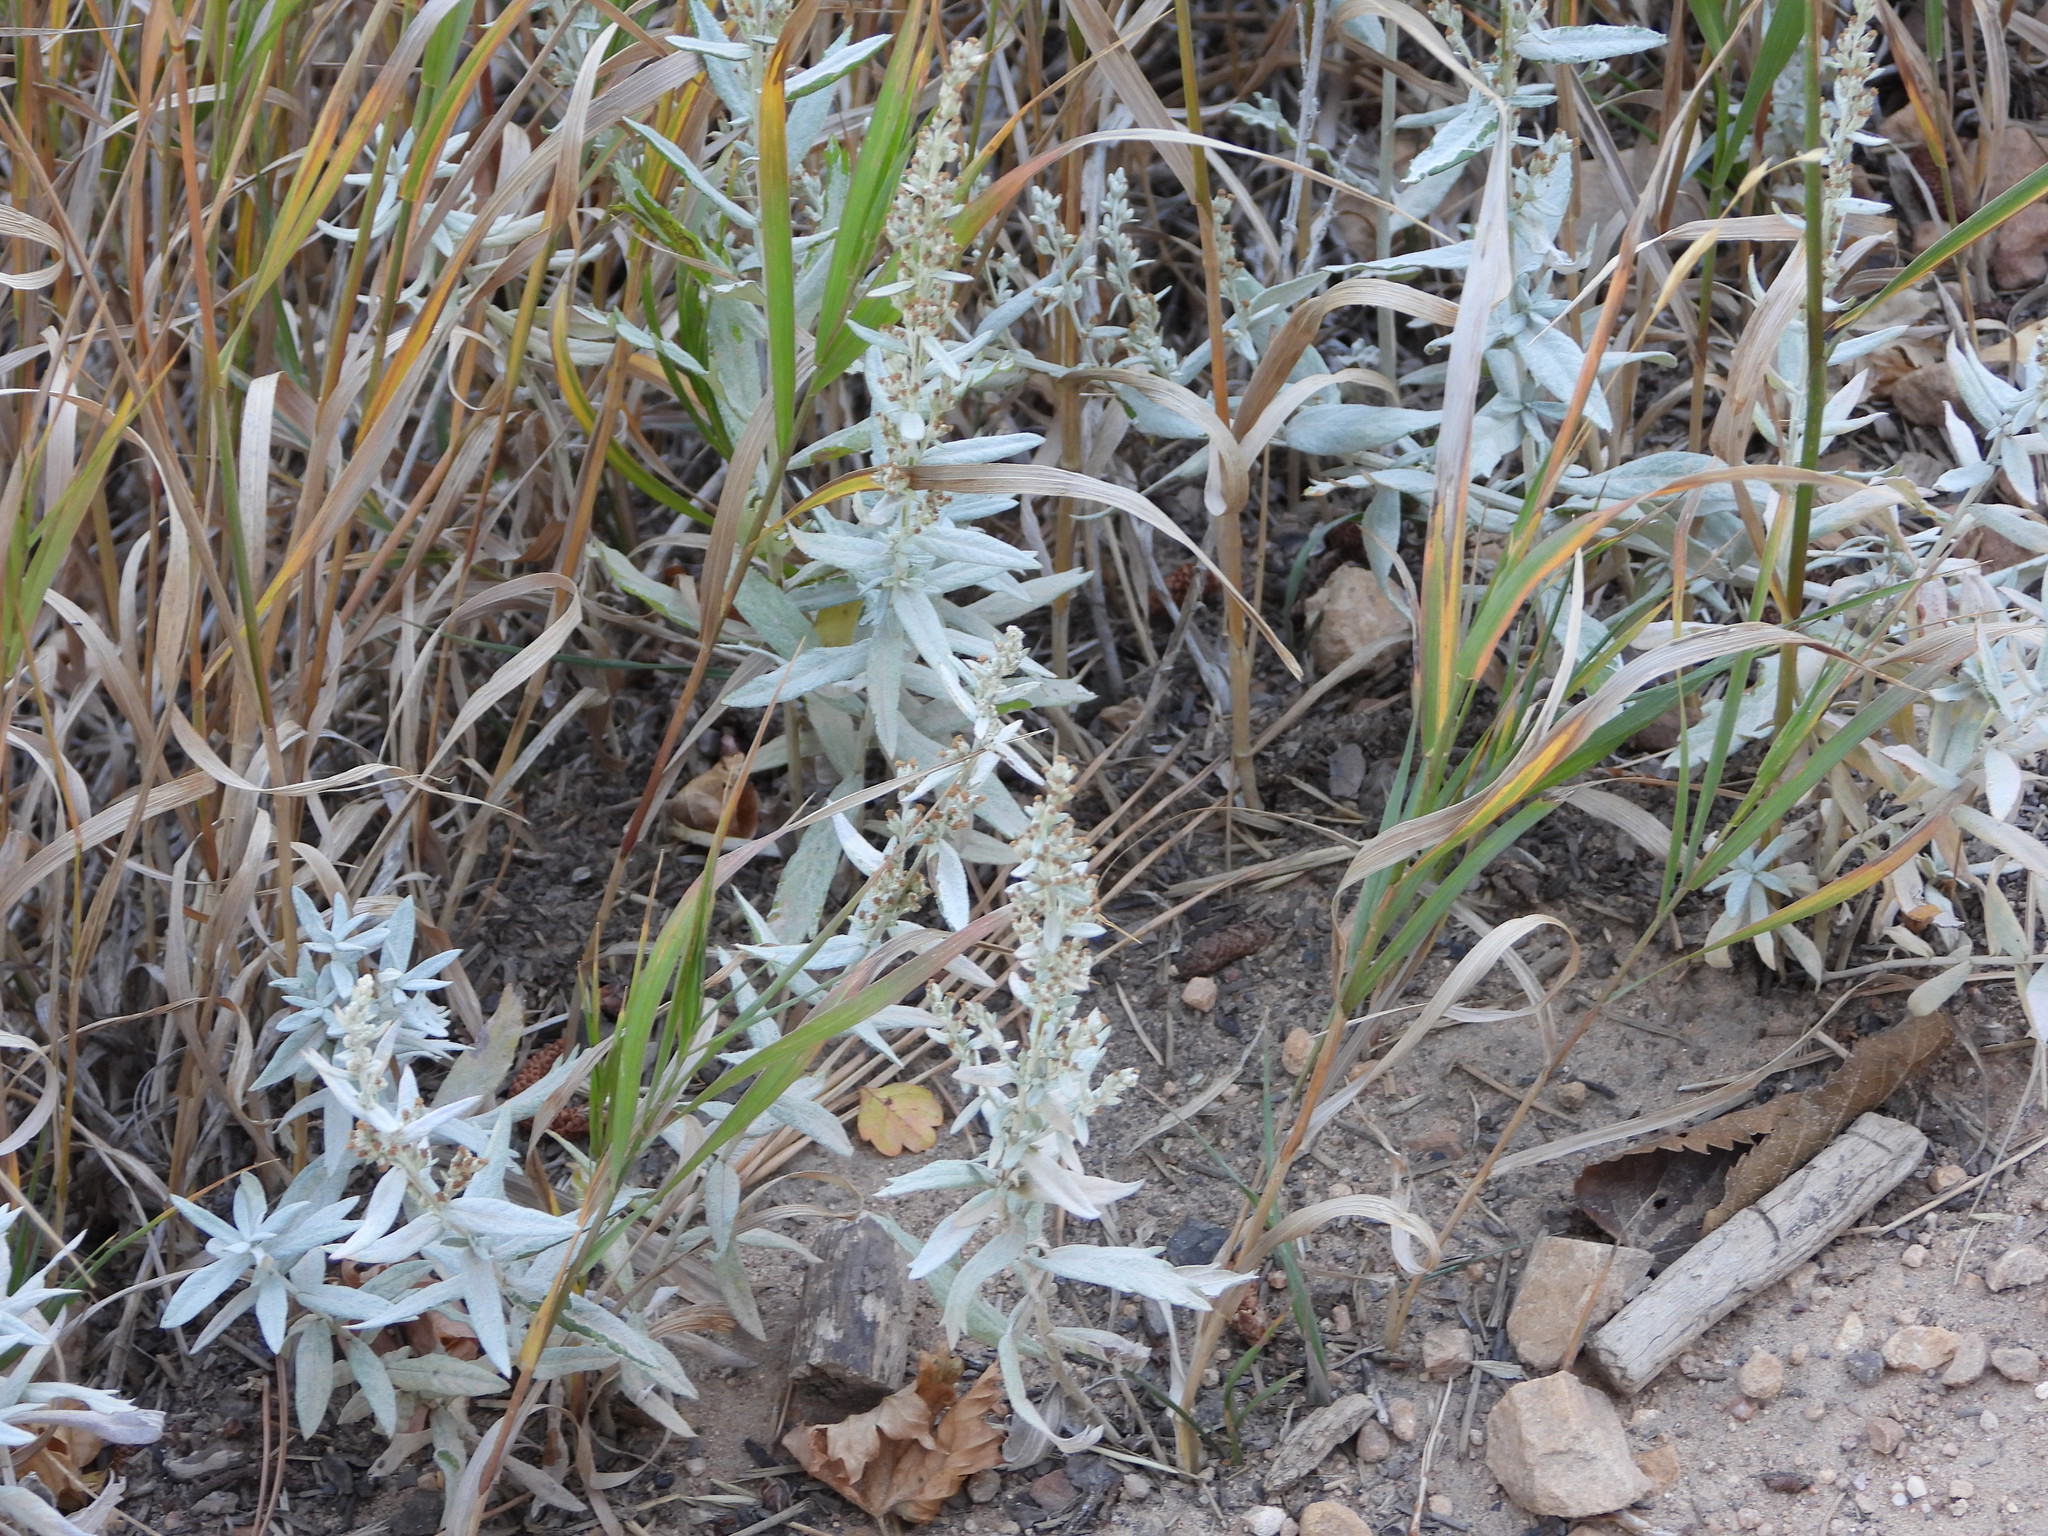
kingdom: Plantae
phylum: Tracheophyta
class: Magnoliopsida
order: Asterales
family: Asteraceae
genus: Artemisia
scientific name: Artemisia ludoviciana
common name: Western mugwort
